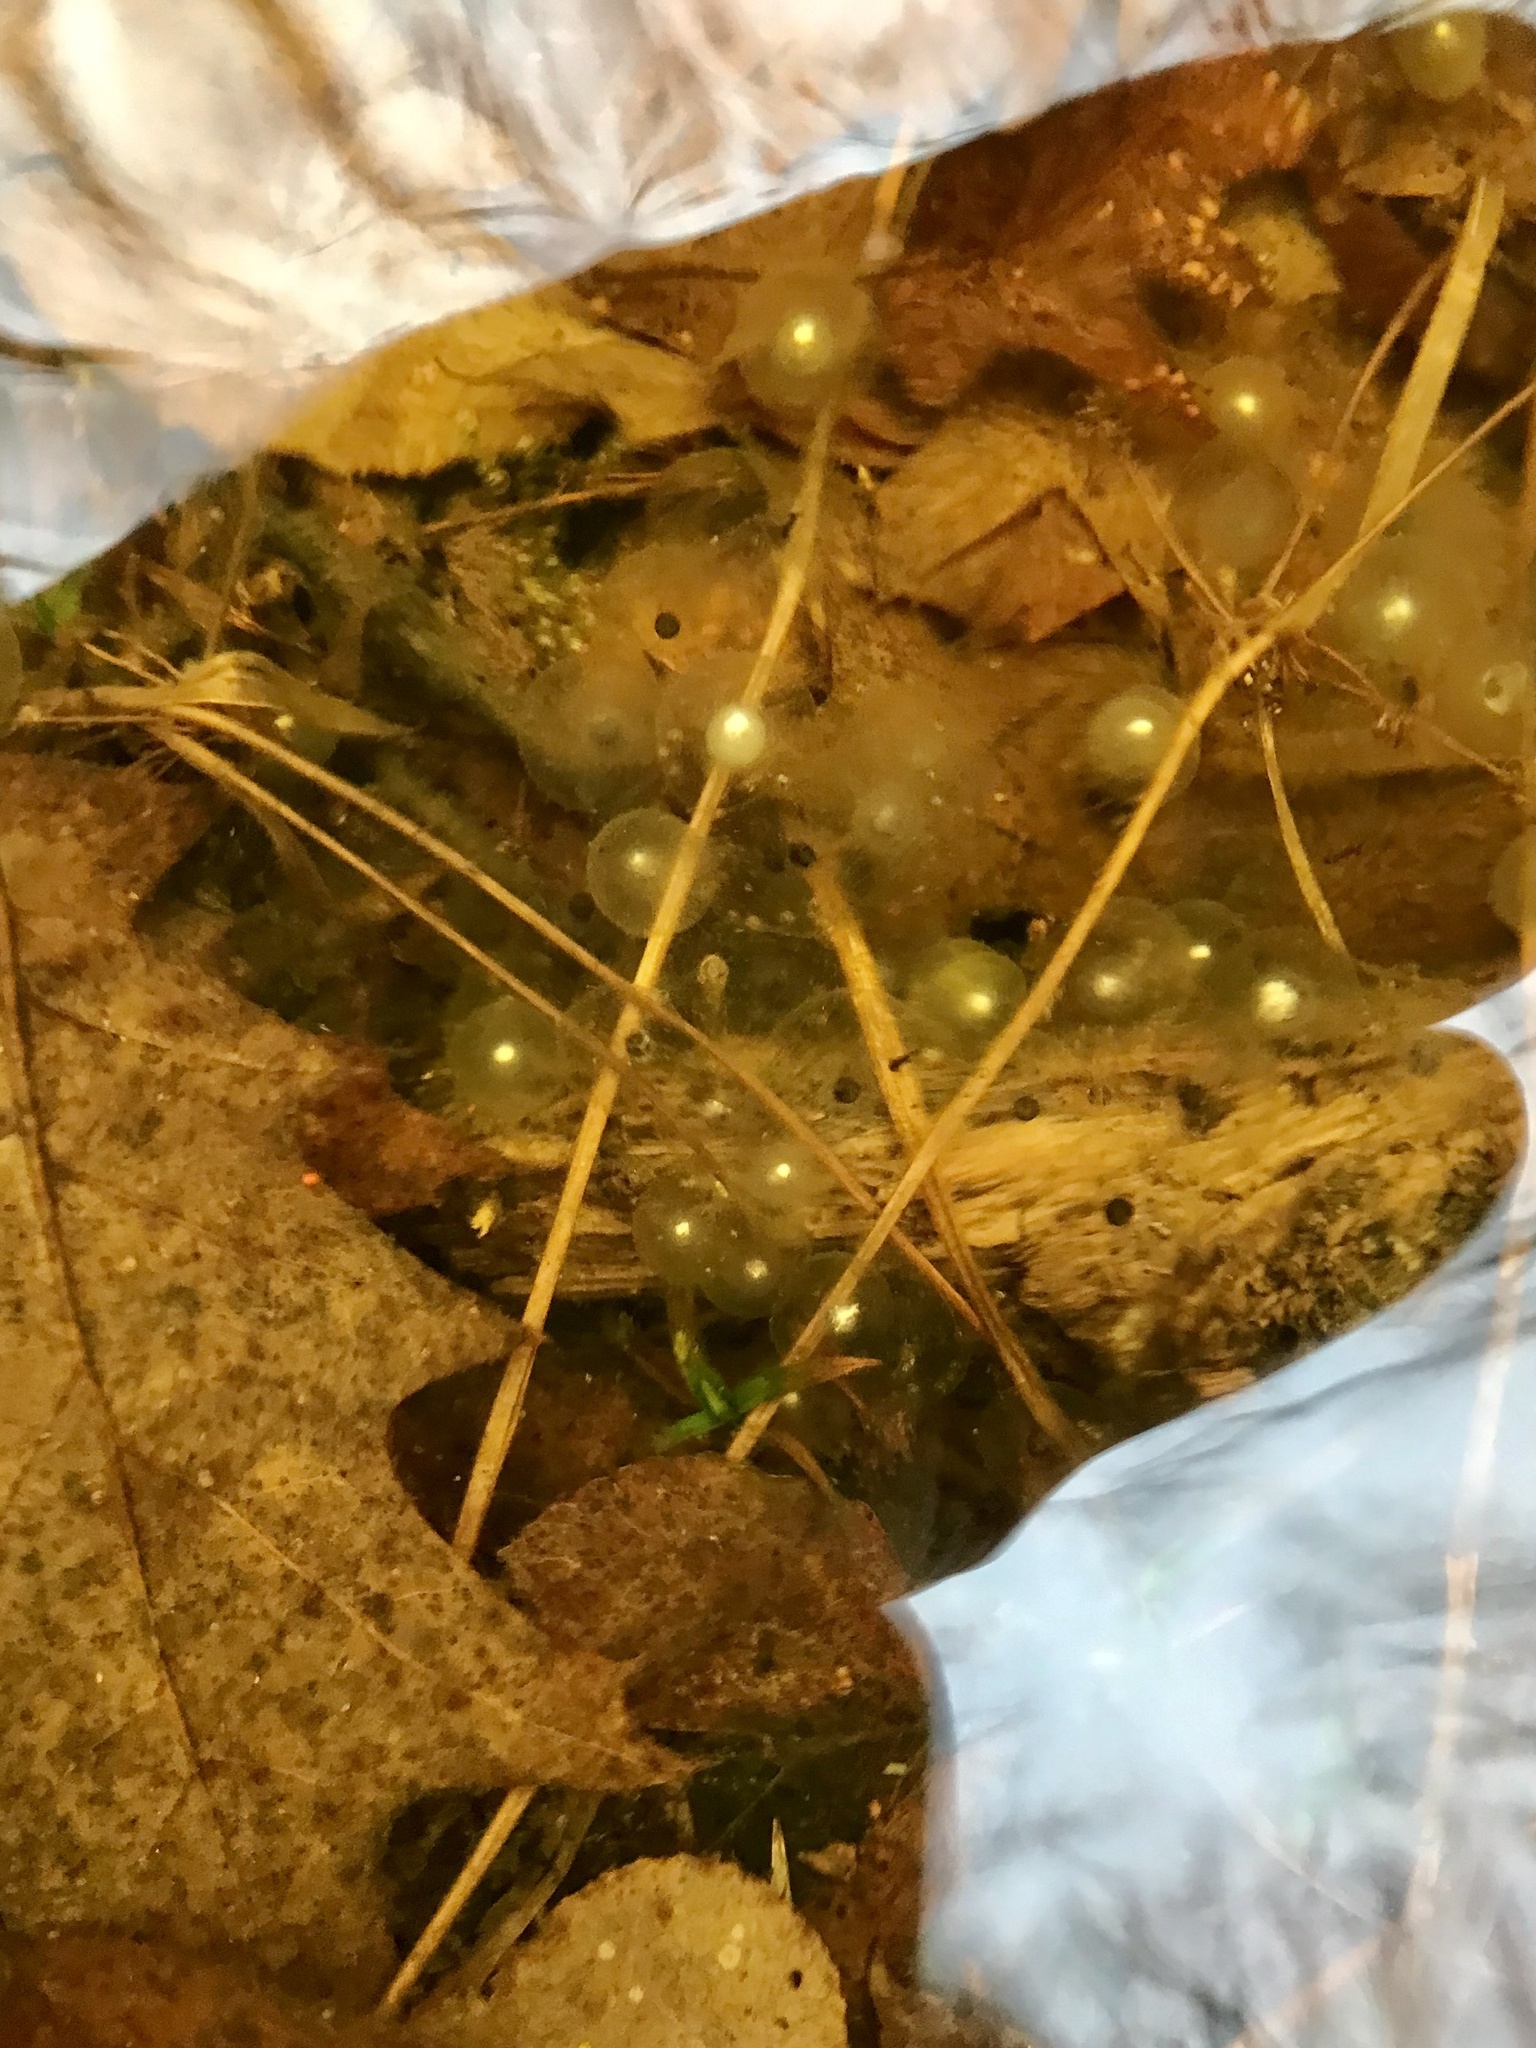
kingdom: Animalia
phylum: Chordata
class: Amphibia
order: Caudata
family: Ambystomatidae
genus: Ambystoma
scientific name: Ambystoma laterale
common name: Blue-spotted salamander
